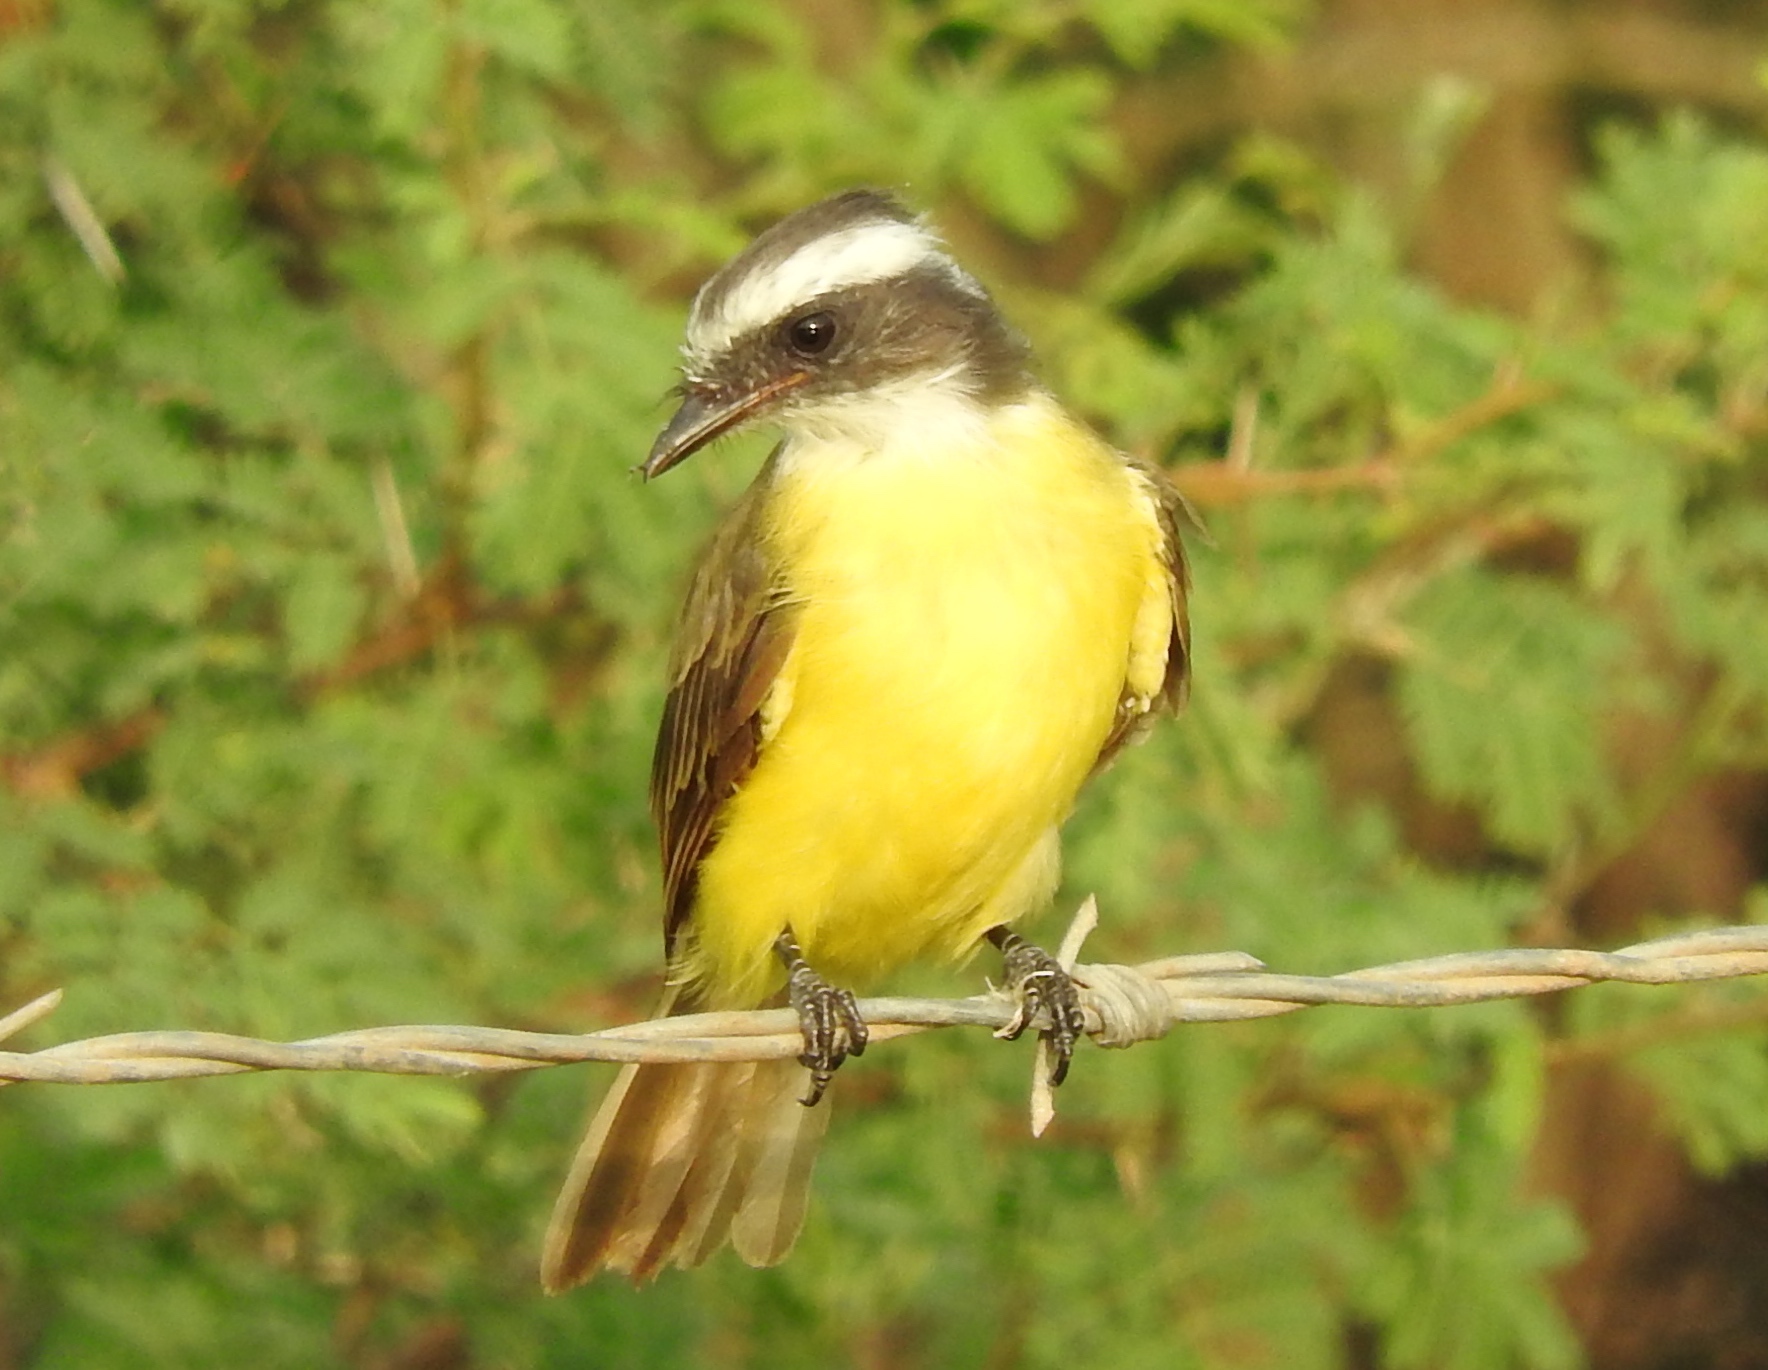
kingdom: Animalia
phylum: Chordata
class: Aves
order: Passeriformes
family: Tyrannidae
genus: Myiozetetes
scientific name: Myiozetetes similis
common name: Social flycatcher
